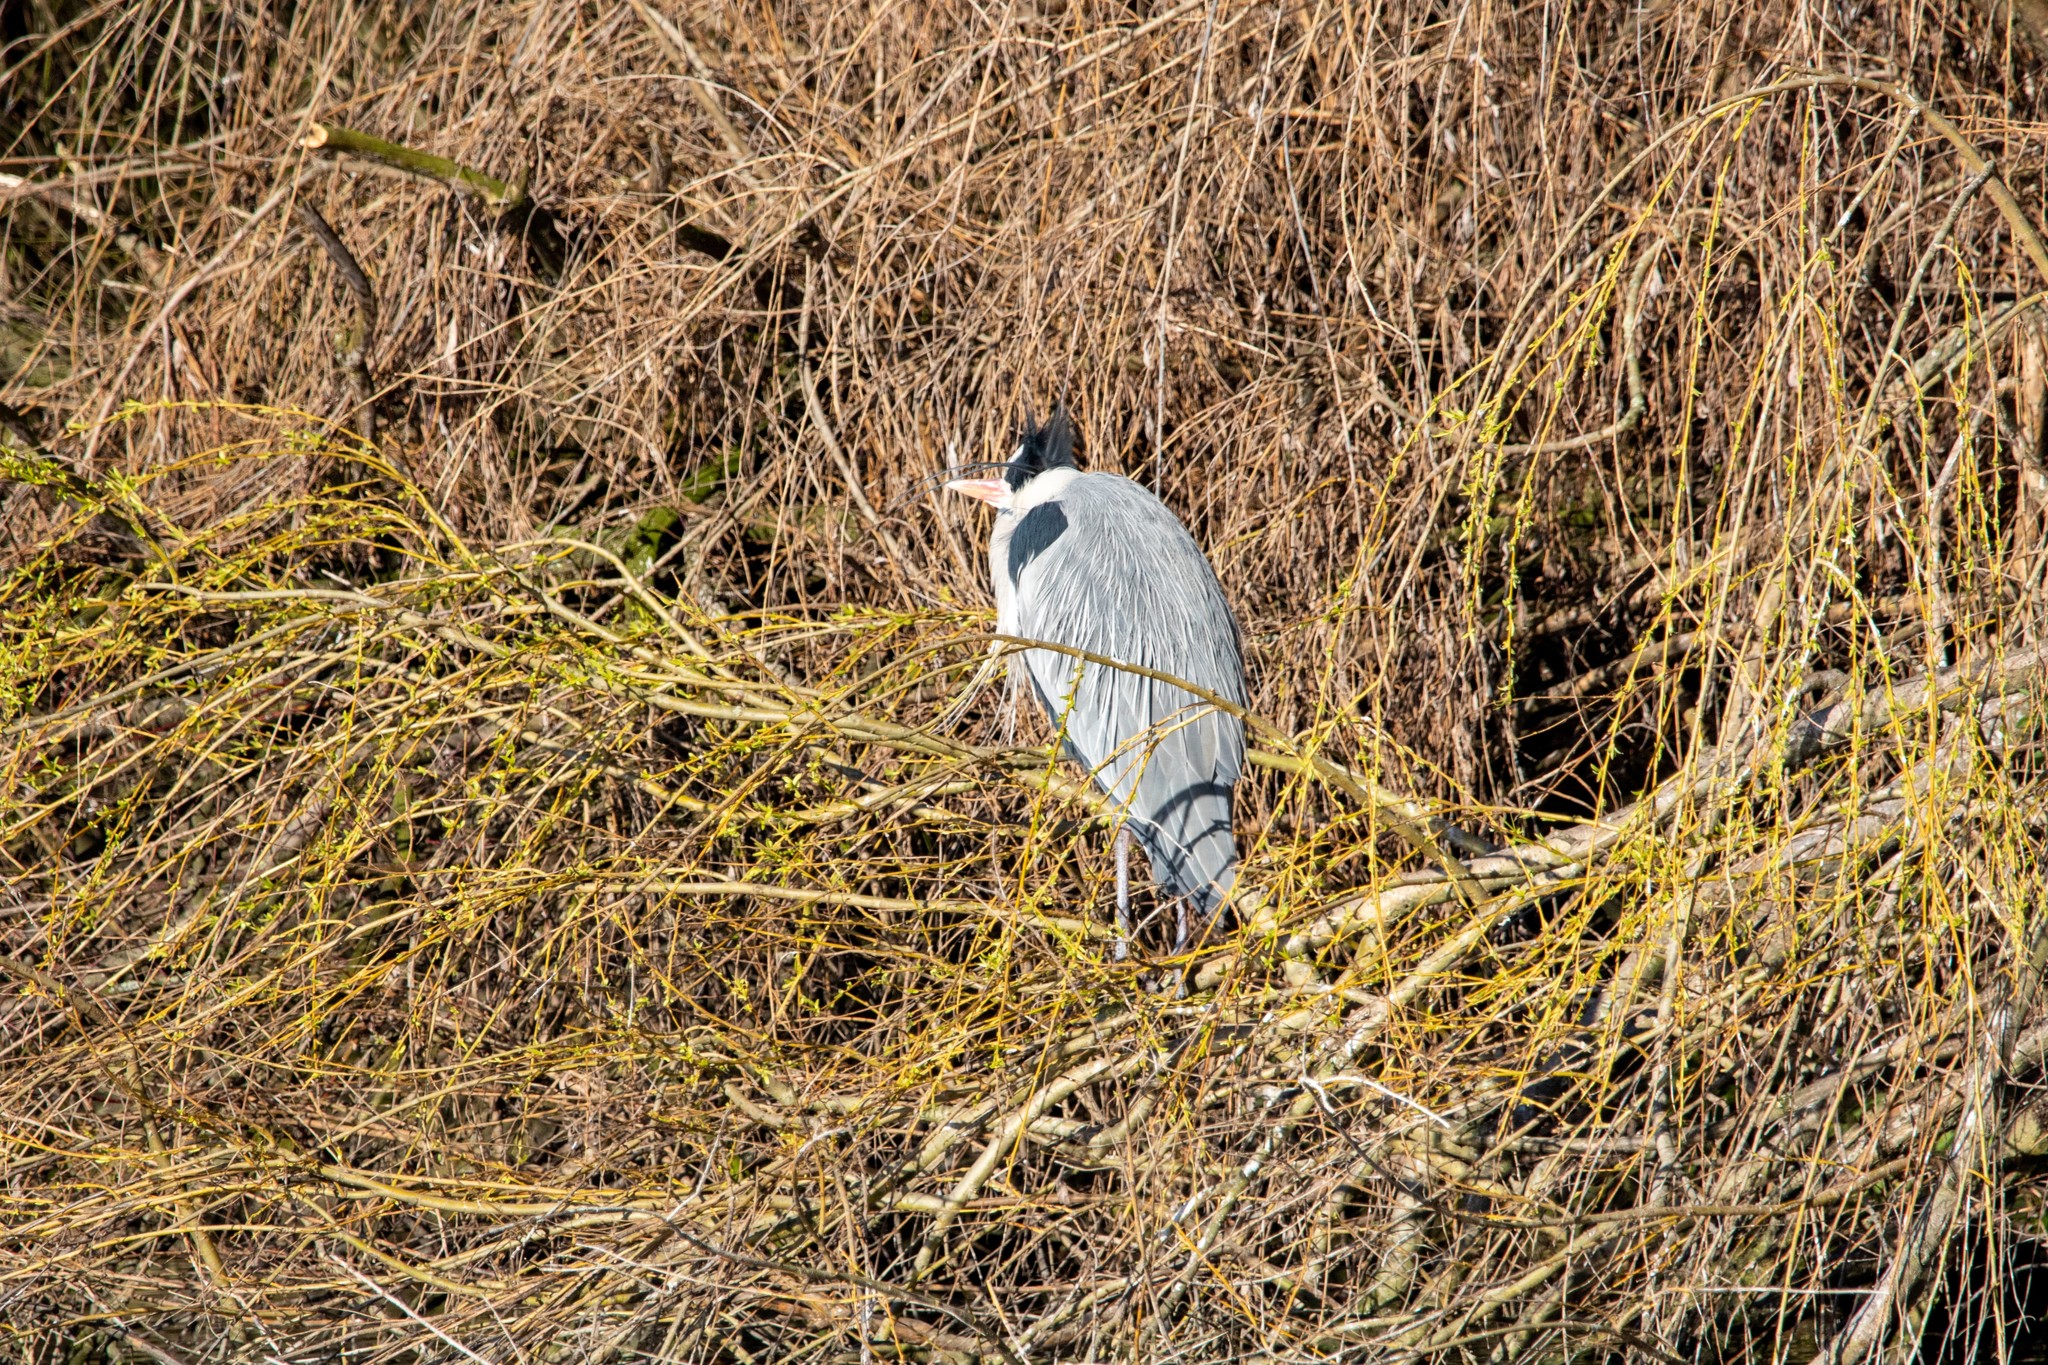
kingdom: Animalia
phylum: Chordata
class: Aves
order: Pelecaniformes
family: Ardeidae
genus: Ardea
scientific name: Ardea cinerea
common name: Grey heron
